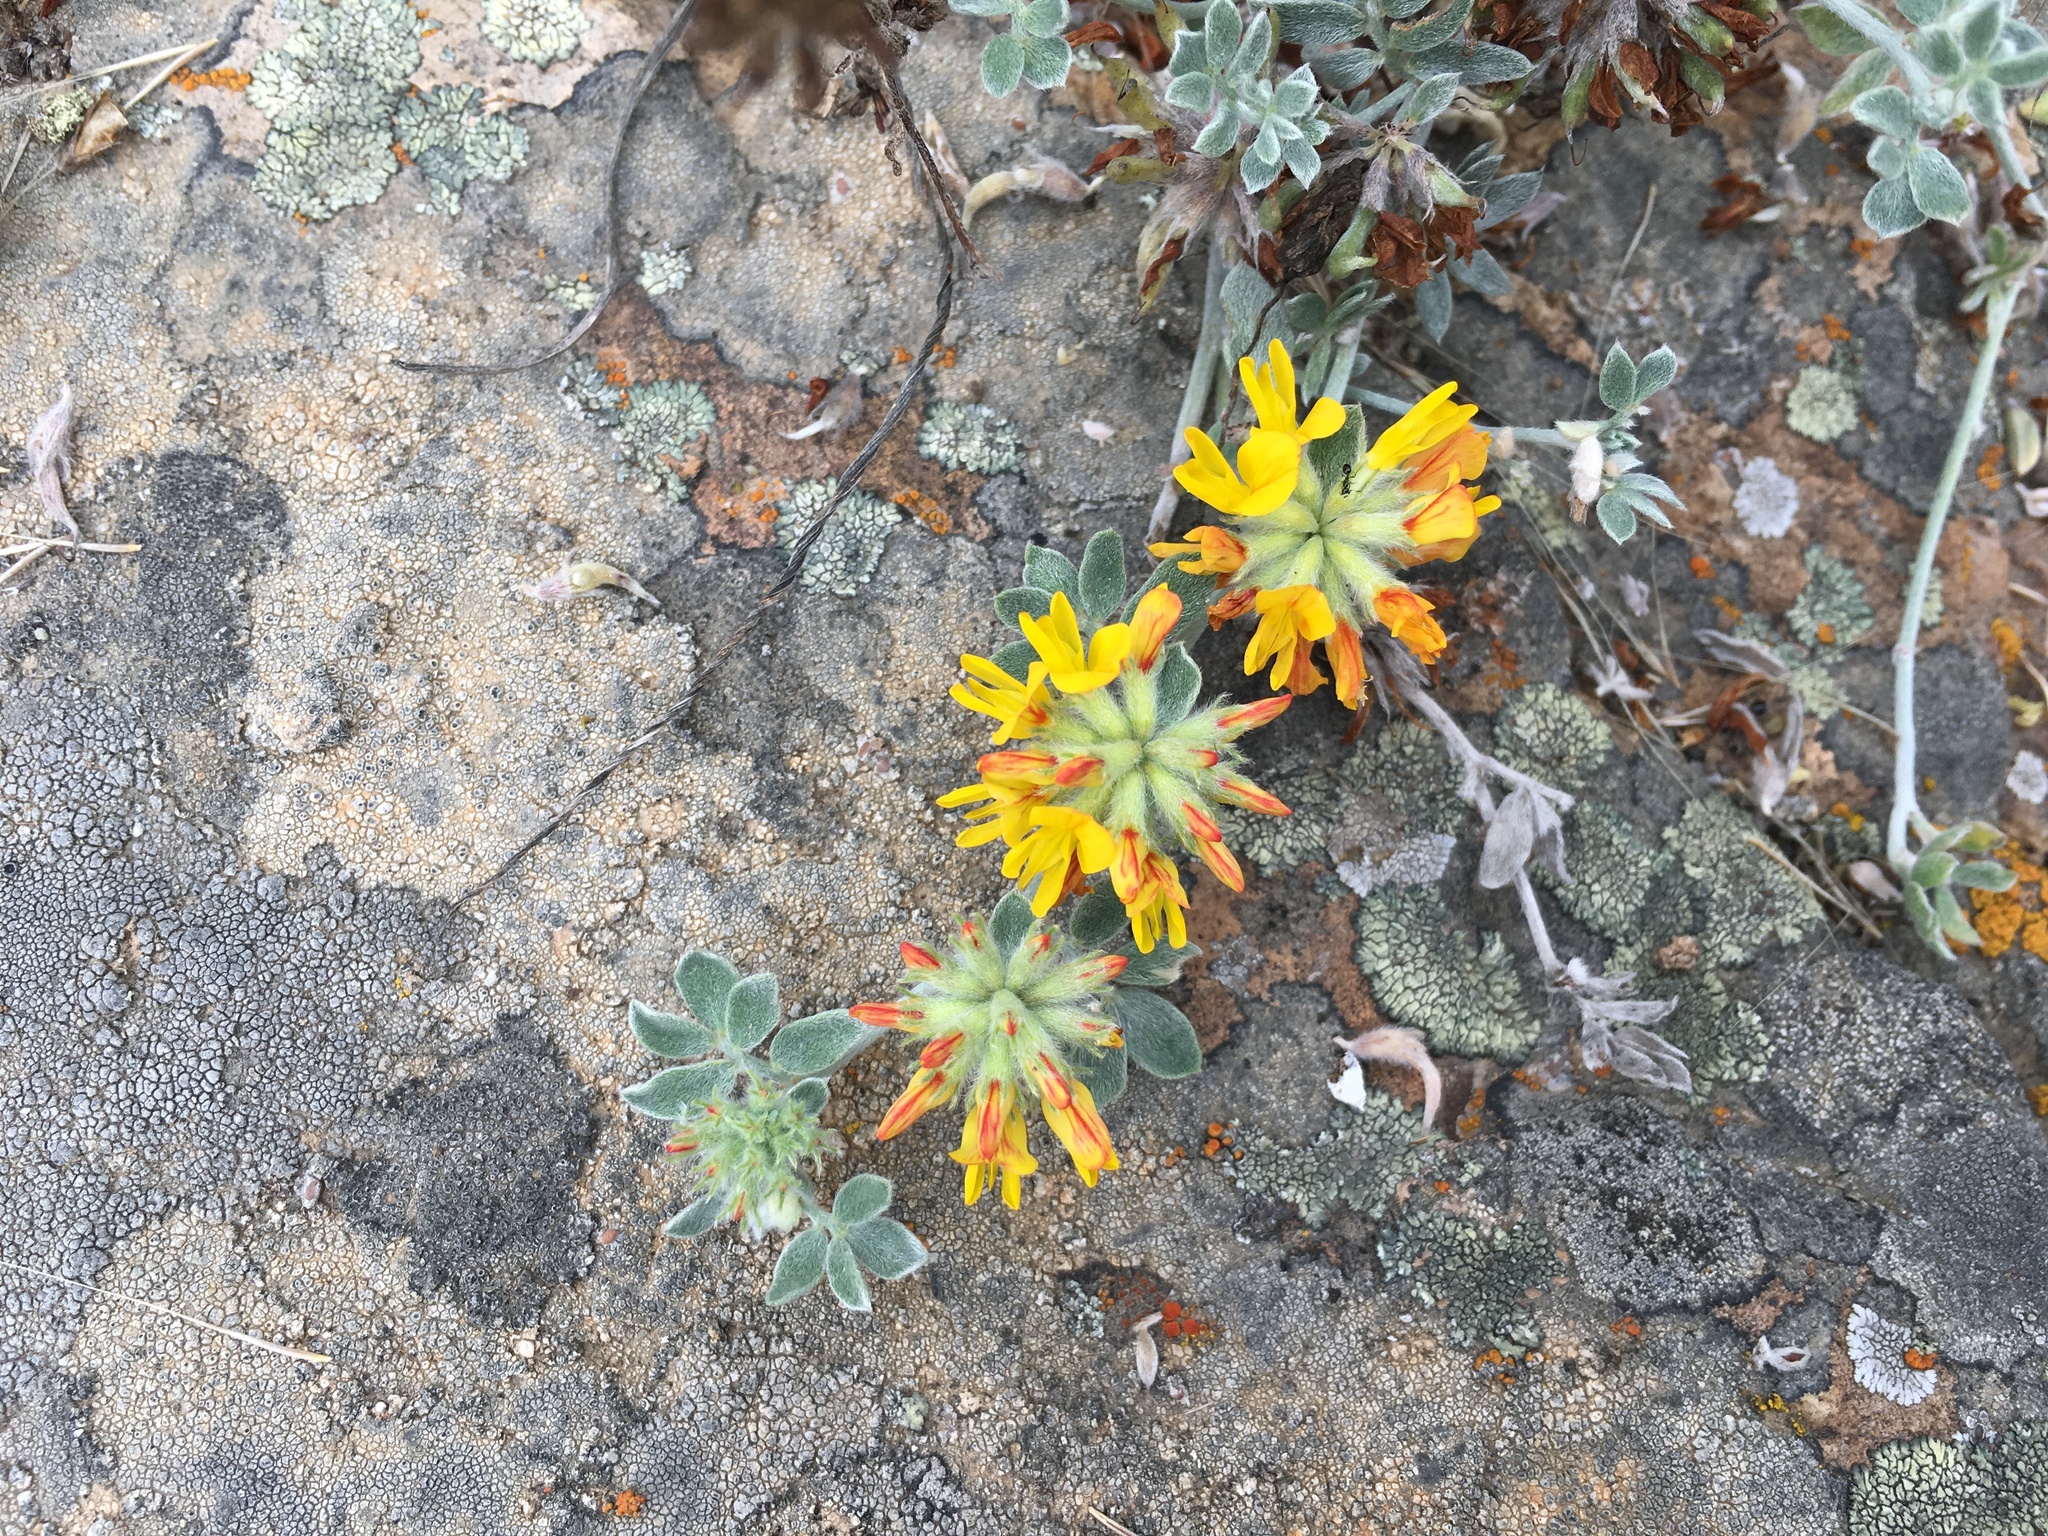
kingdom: Plantae
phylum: Tracheophyta
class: Magnoliopsida
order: Fabales
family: Fabaceae
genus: Acmispon
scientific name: Acmispon argophyllus
